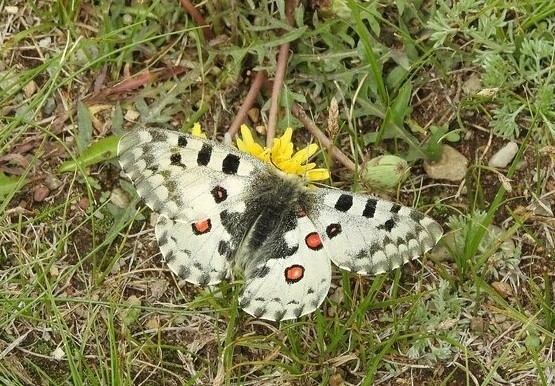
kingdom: Animalia
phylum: Arthropoda
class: Insecta
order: Lepidoptera
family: Papilionidae
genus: Parnassius
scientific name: Parnassius nomion
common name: Nomion apollo
